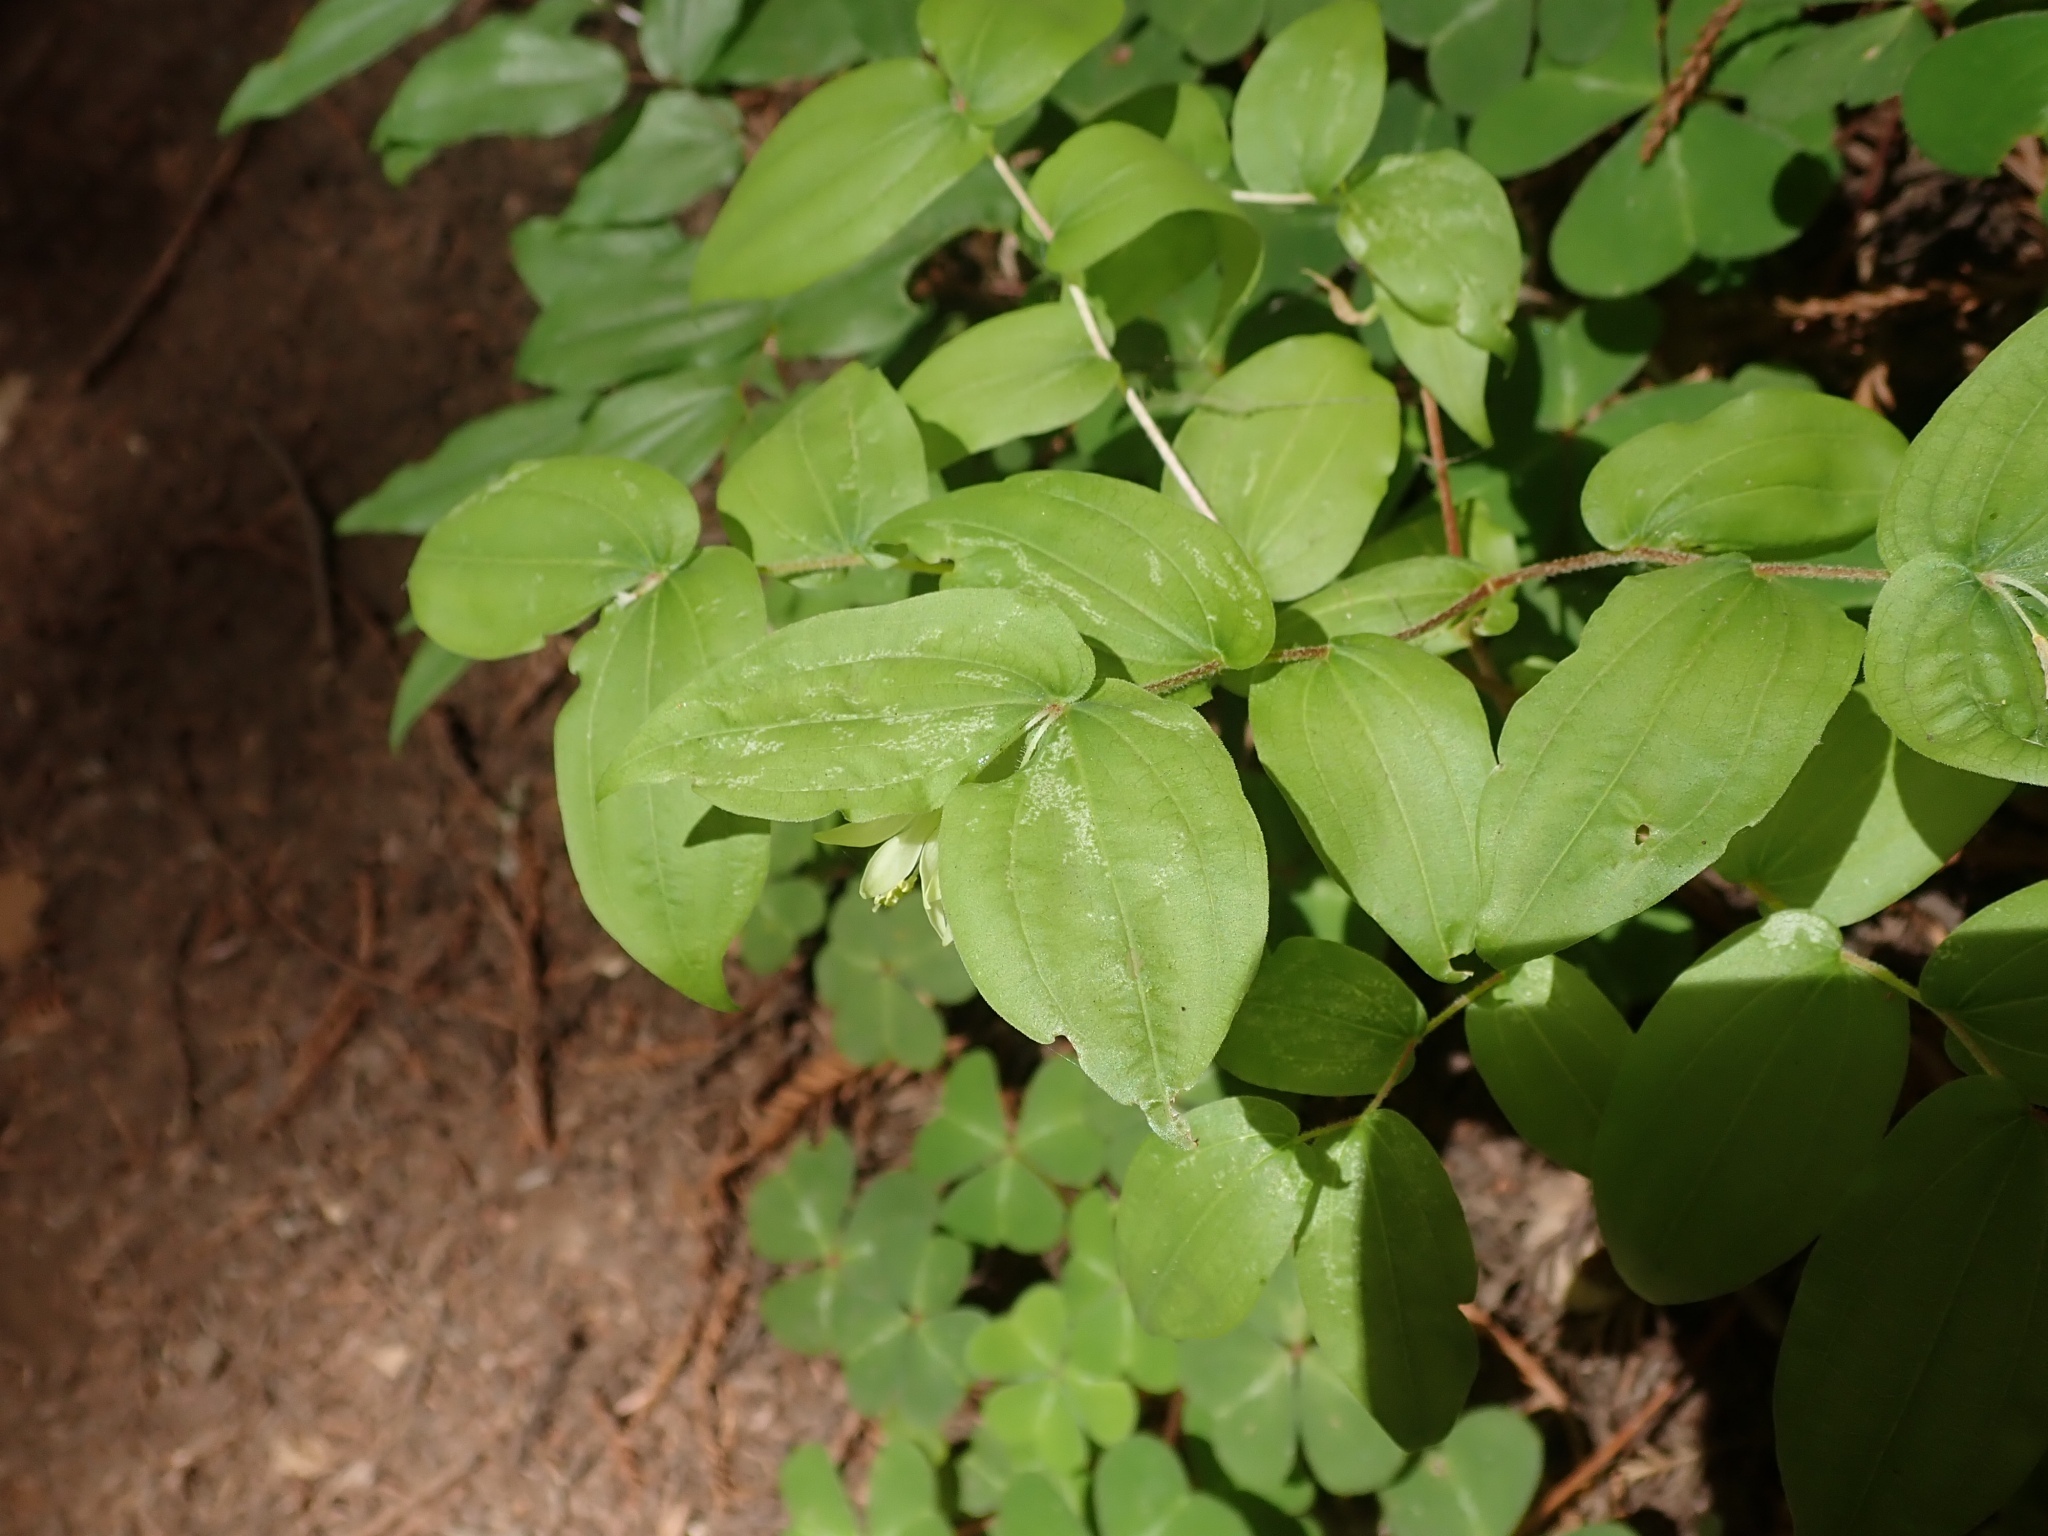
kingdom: Plantae
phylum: Tracheophyta
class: Liliopsida
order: Liliales
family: Liliaceae
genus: Prosartes
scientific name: Prosartes hookeri
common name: Fairy-bells
